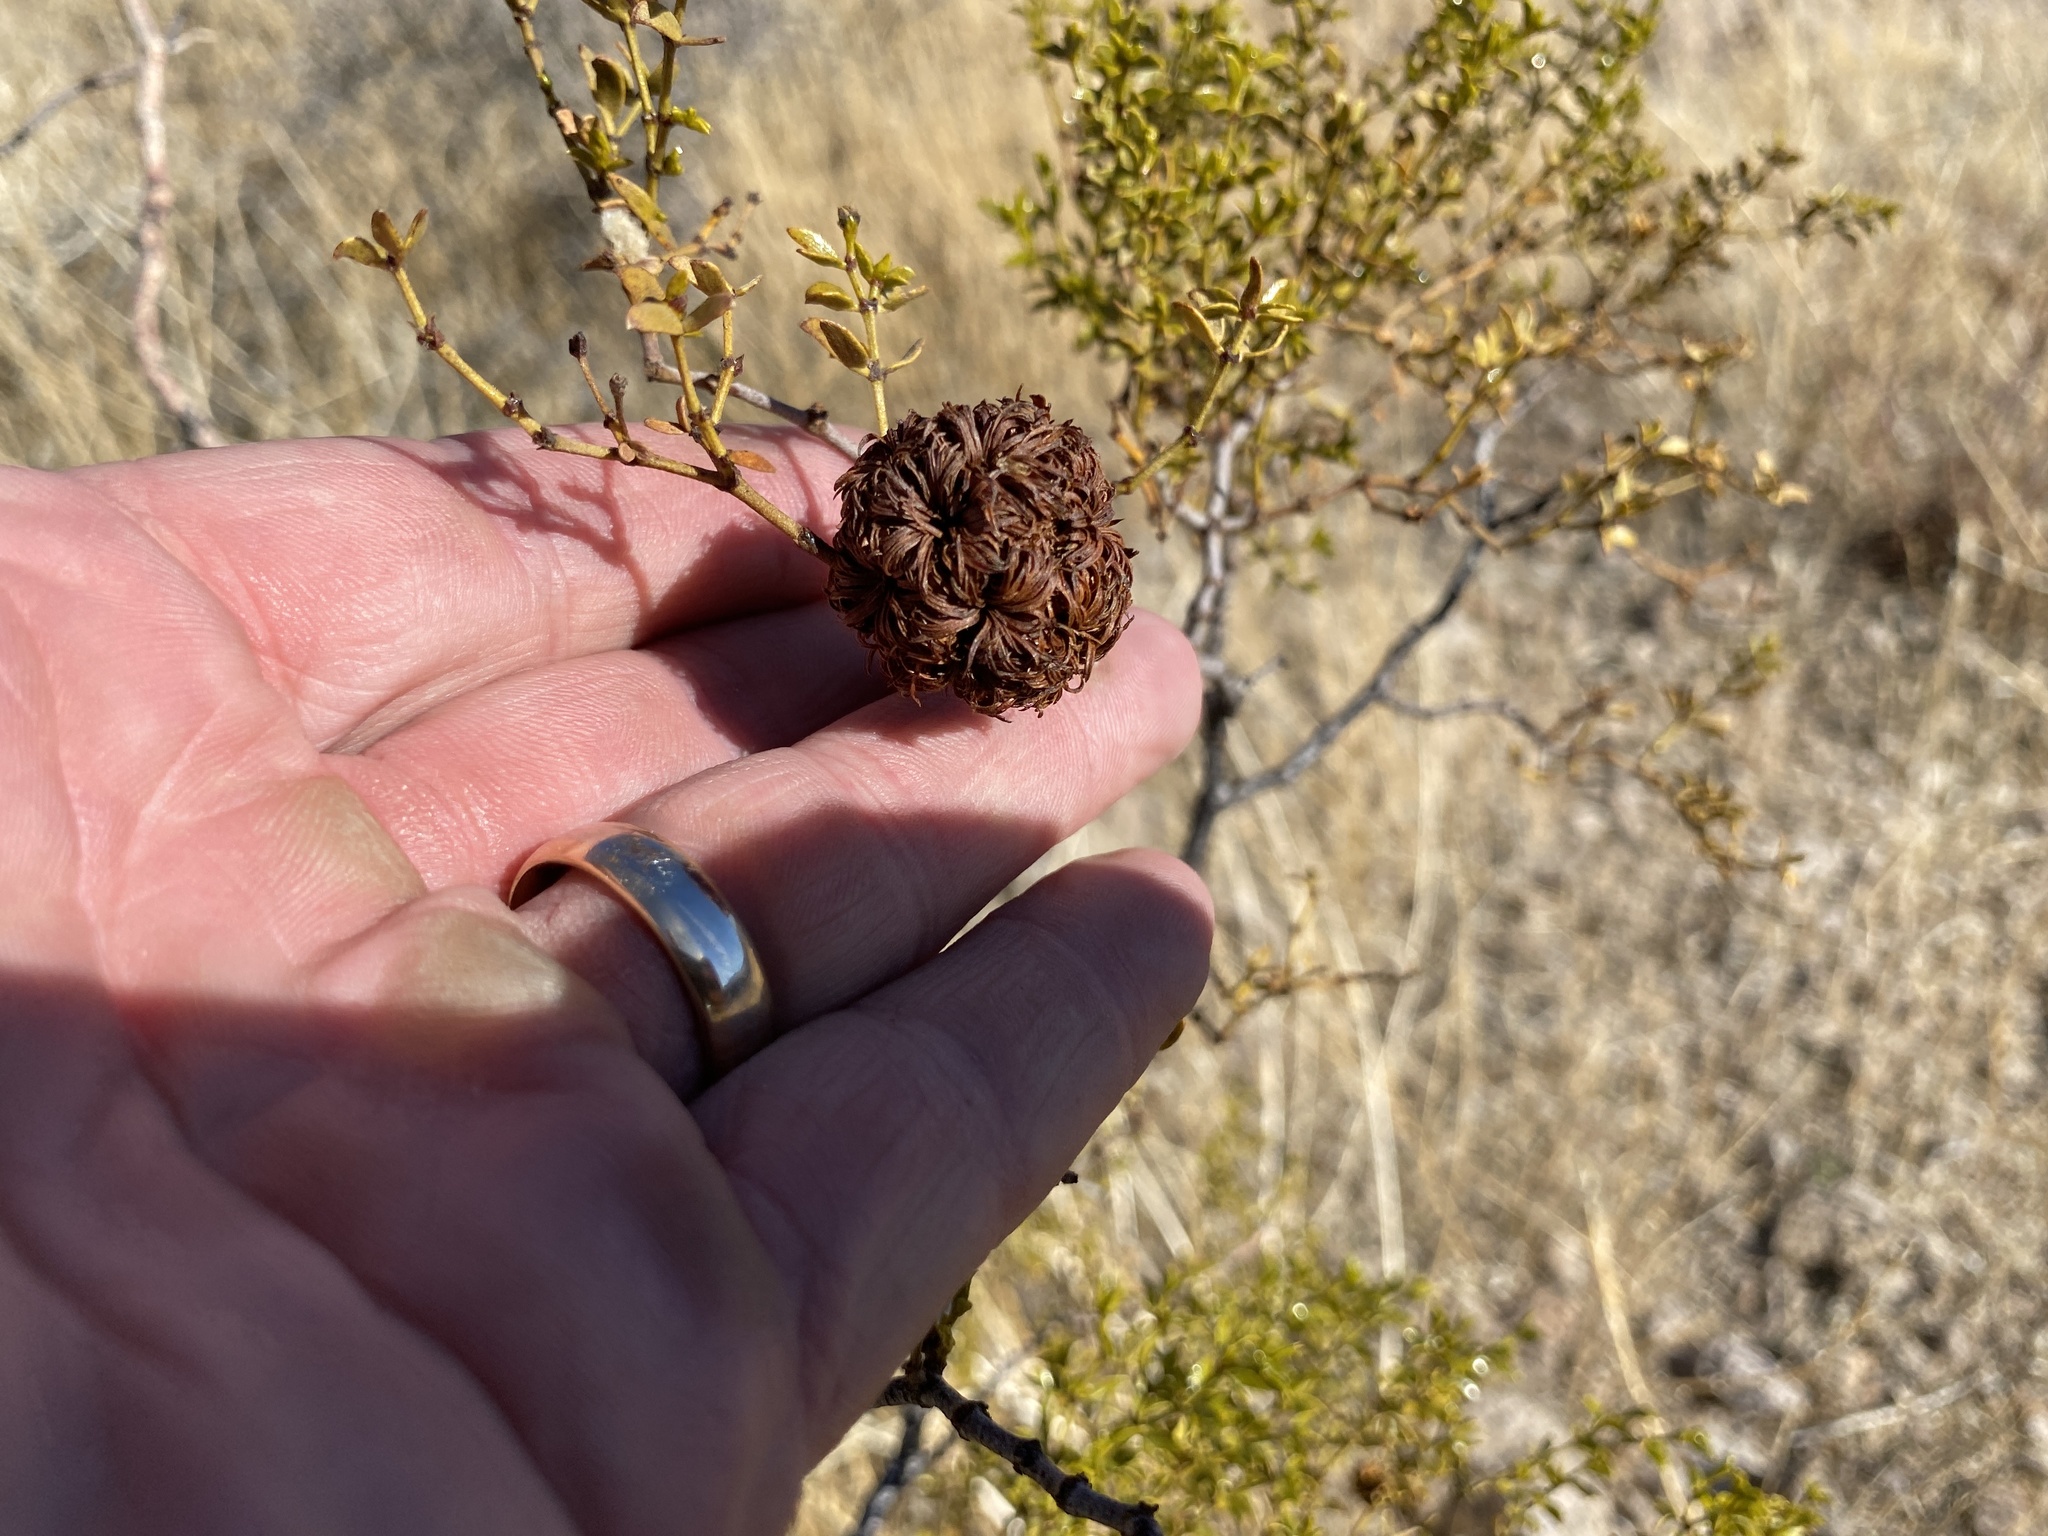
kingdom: Plantae
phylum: Tracheophyta
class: Magnoliopsida
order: Zygophyllales
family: Zygophyllaceae
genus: Larrea
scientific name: Larrea tridentata
